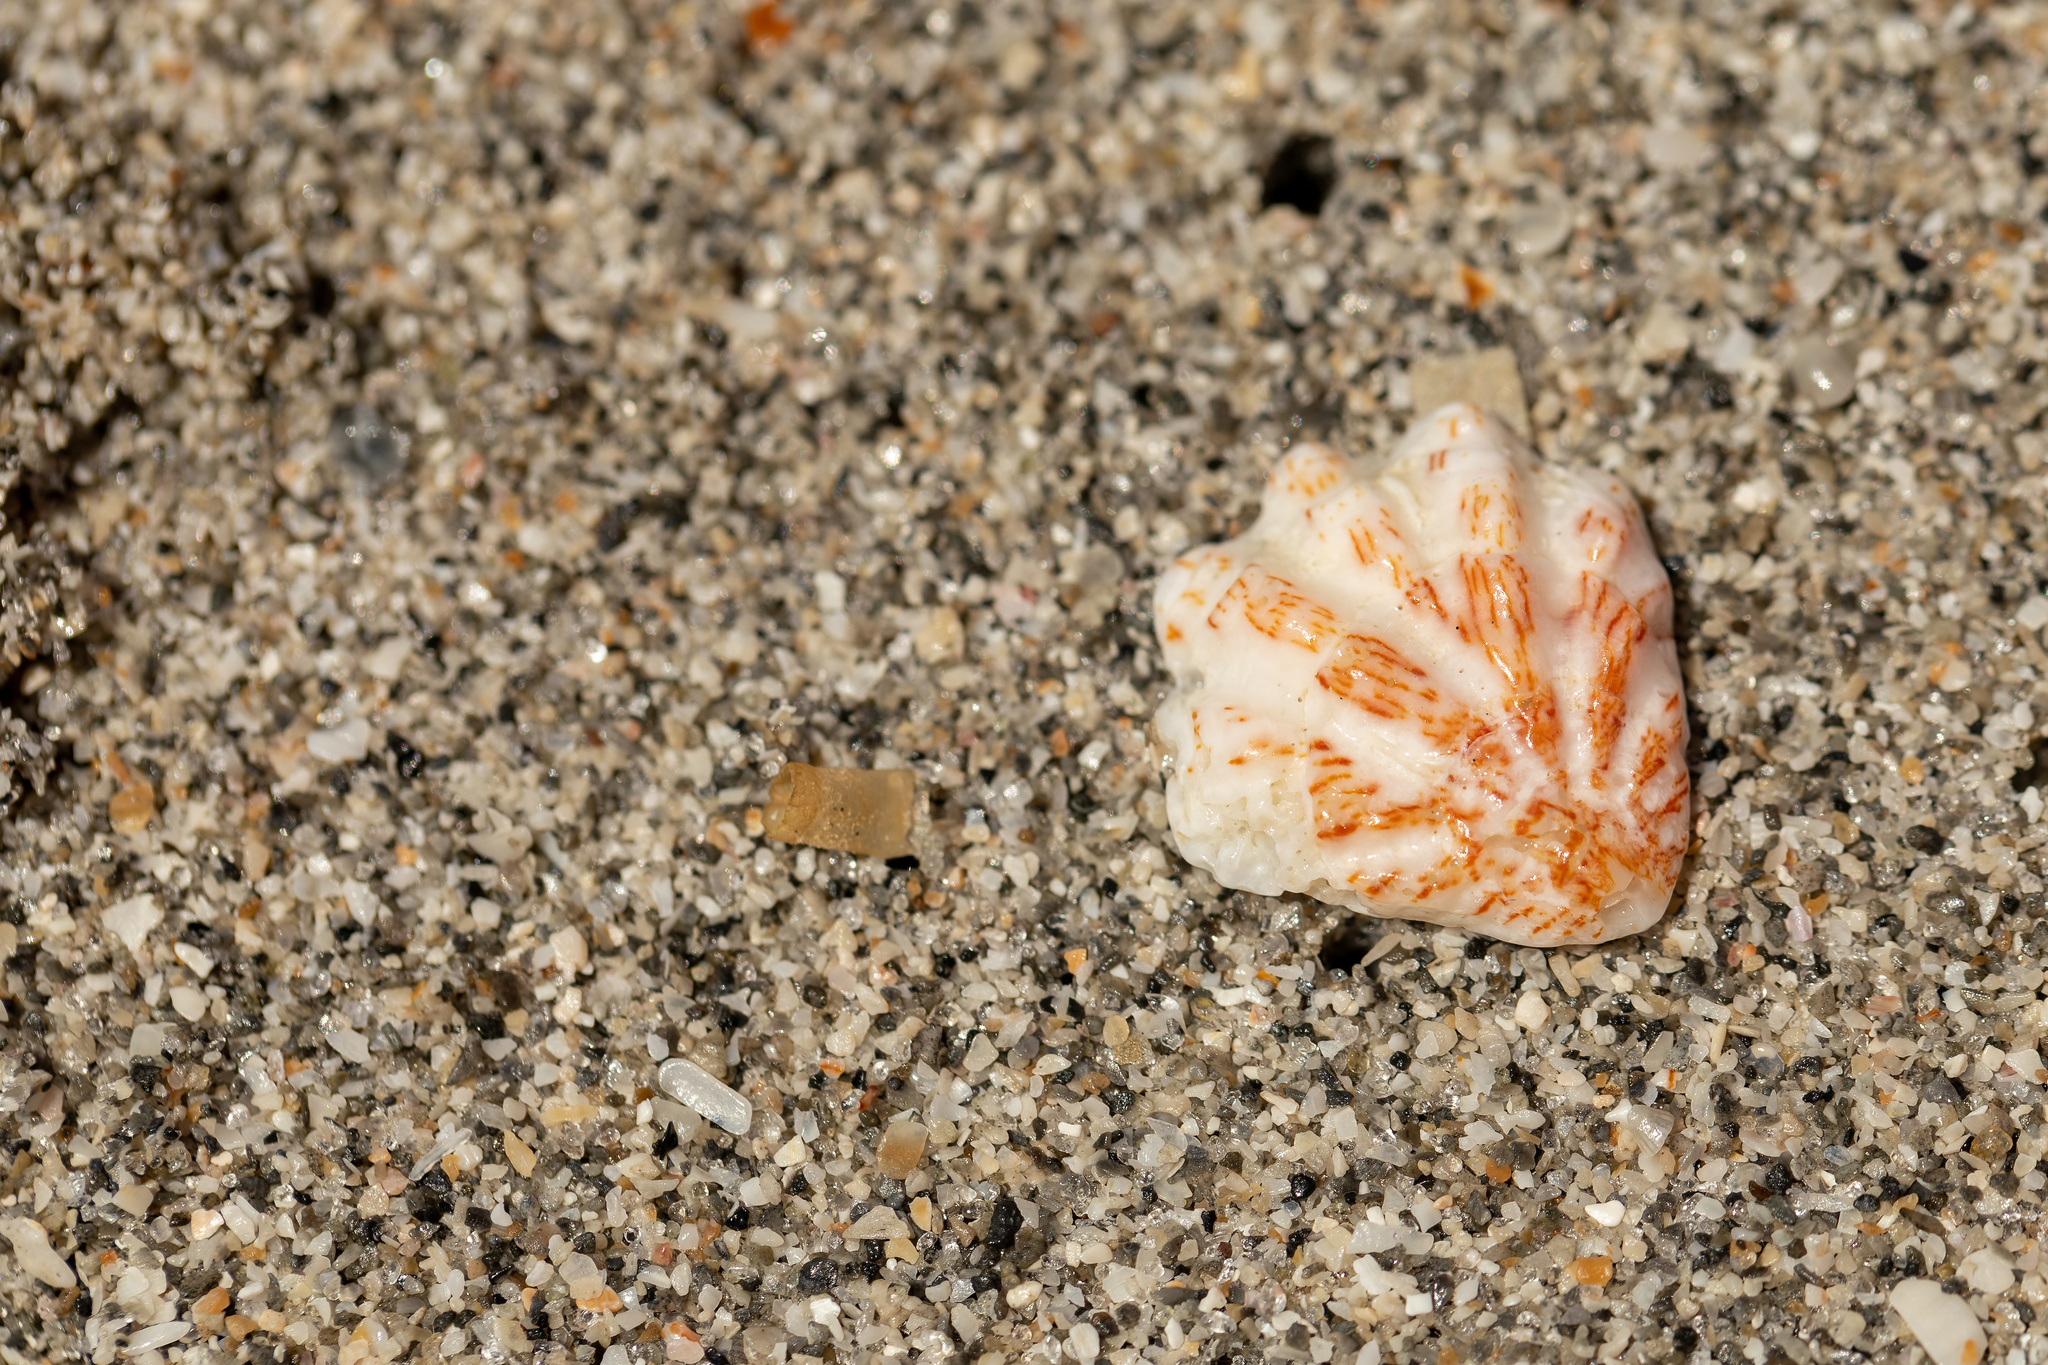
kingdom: Animalia
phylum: Mollusca
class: Bivalvia
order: Pectinida
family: Plicatulidae
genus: Plicatula
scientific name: Plicatula gibbosa
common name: Atlantic kitten's paw
